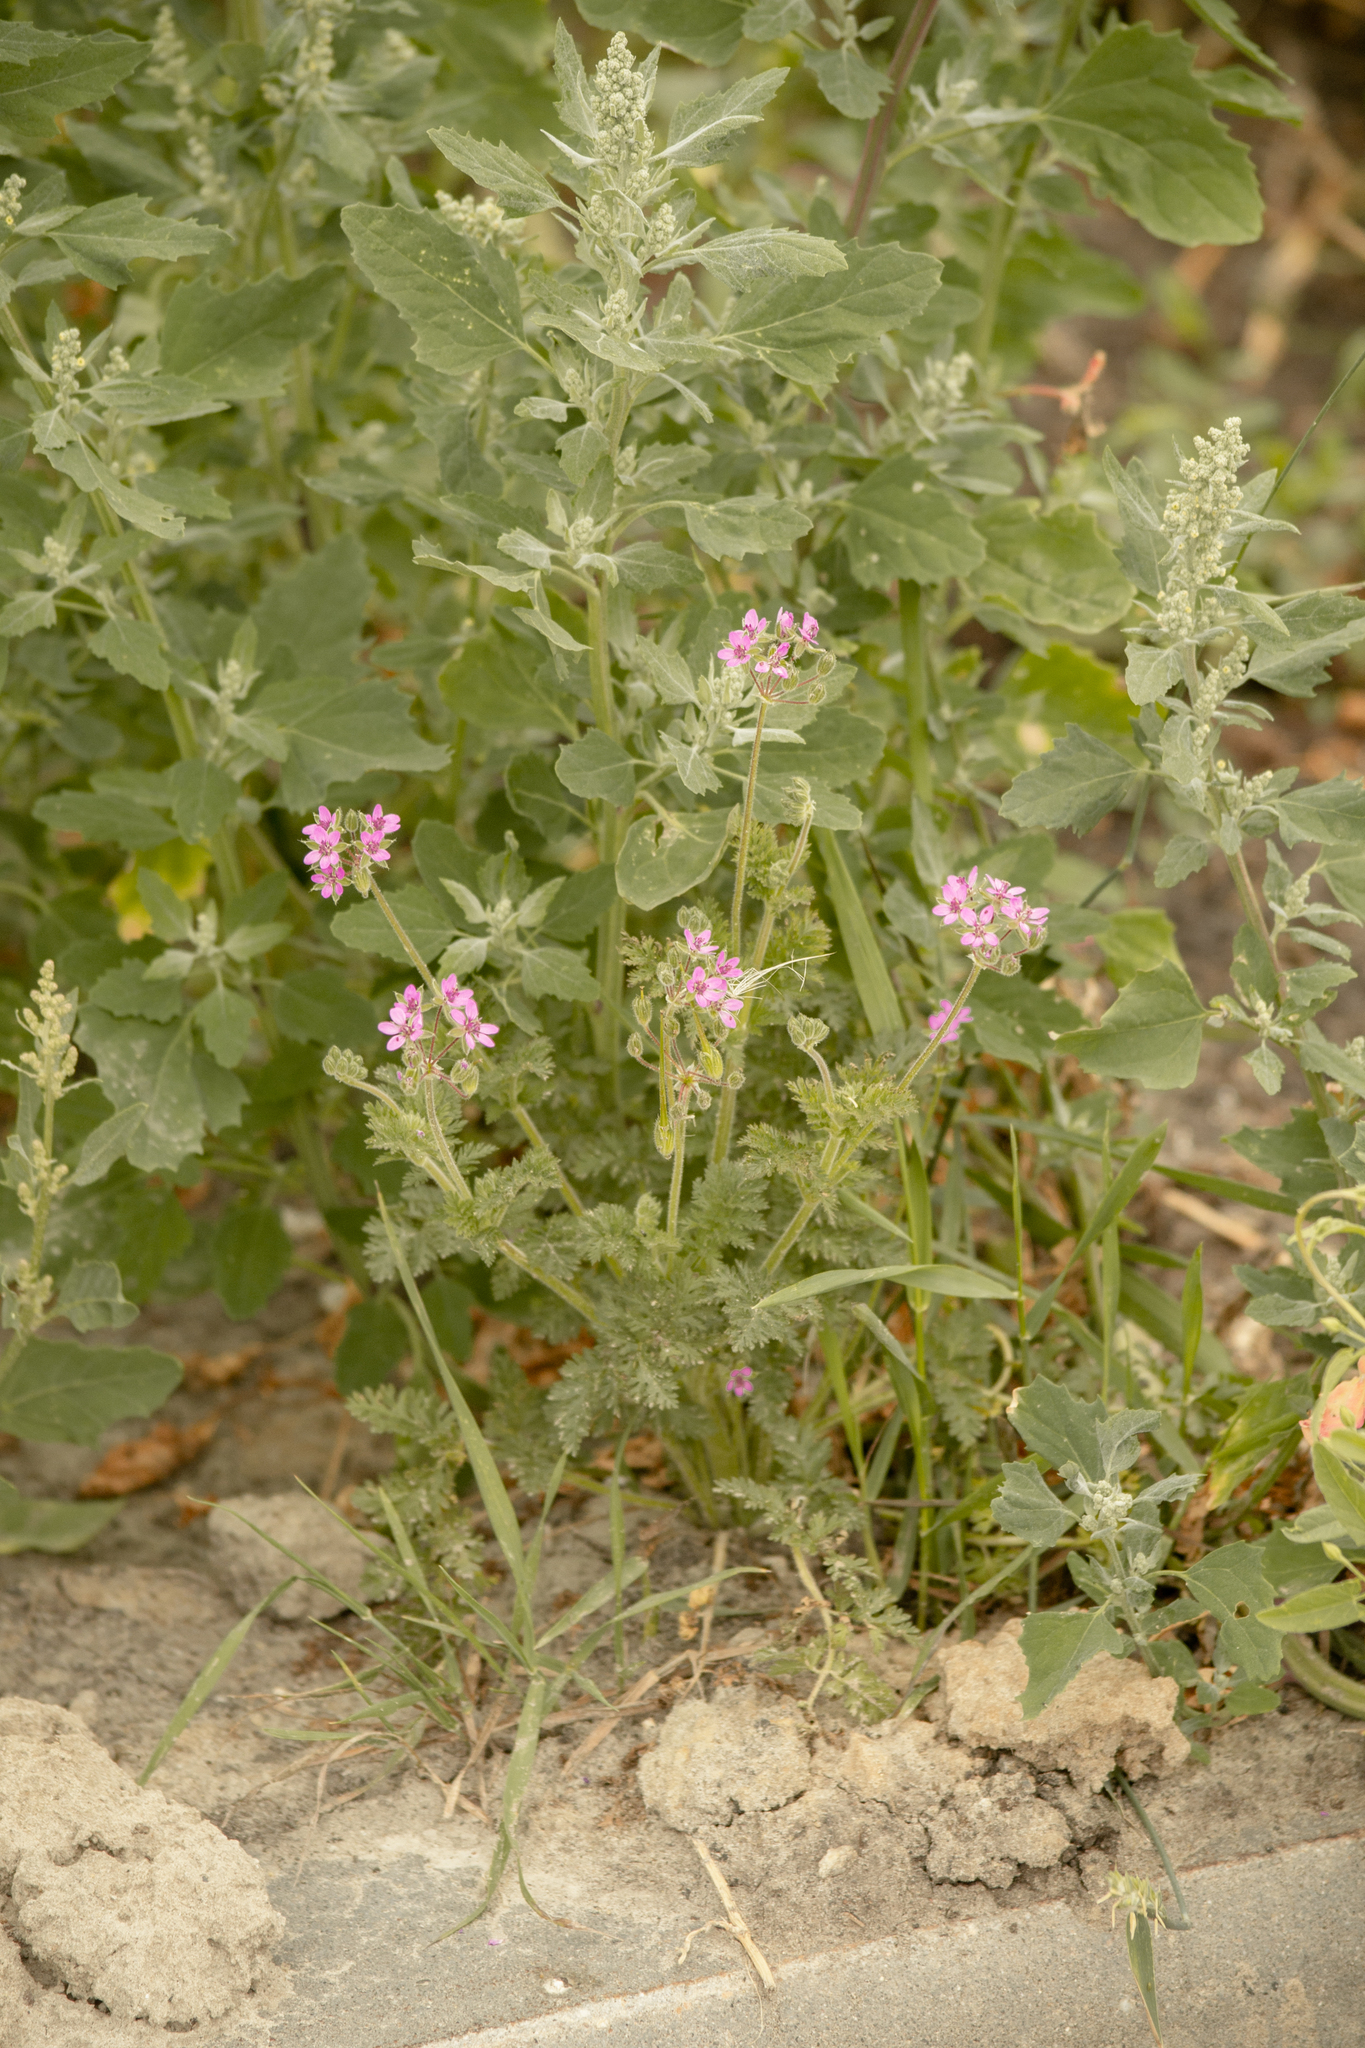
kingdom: Plantae
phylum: Tracheophyta
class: Magnoliopsida
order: Geraniales
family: Geraniaceae
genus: Erodium
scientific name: Erodium cicutarium
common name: Common stork's-bill
